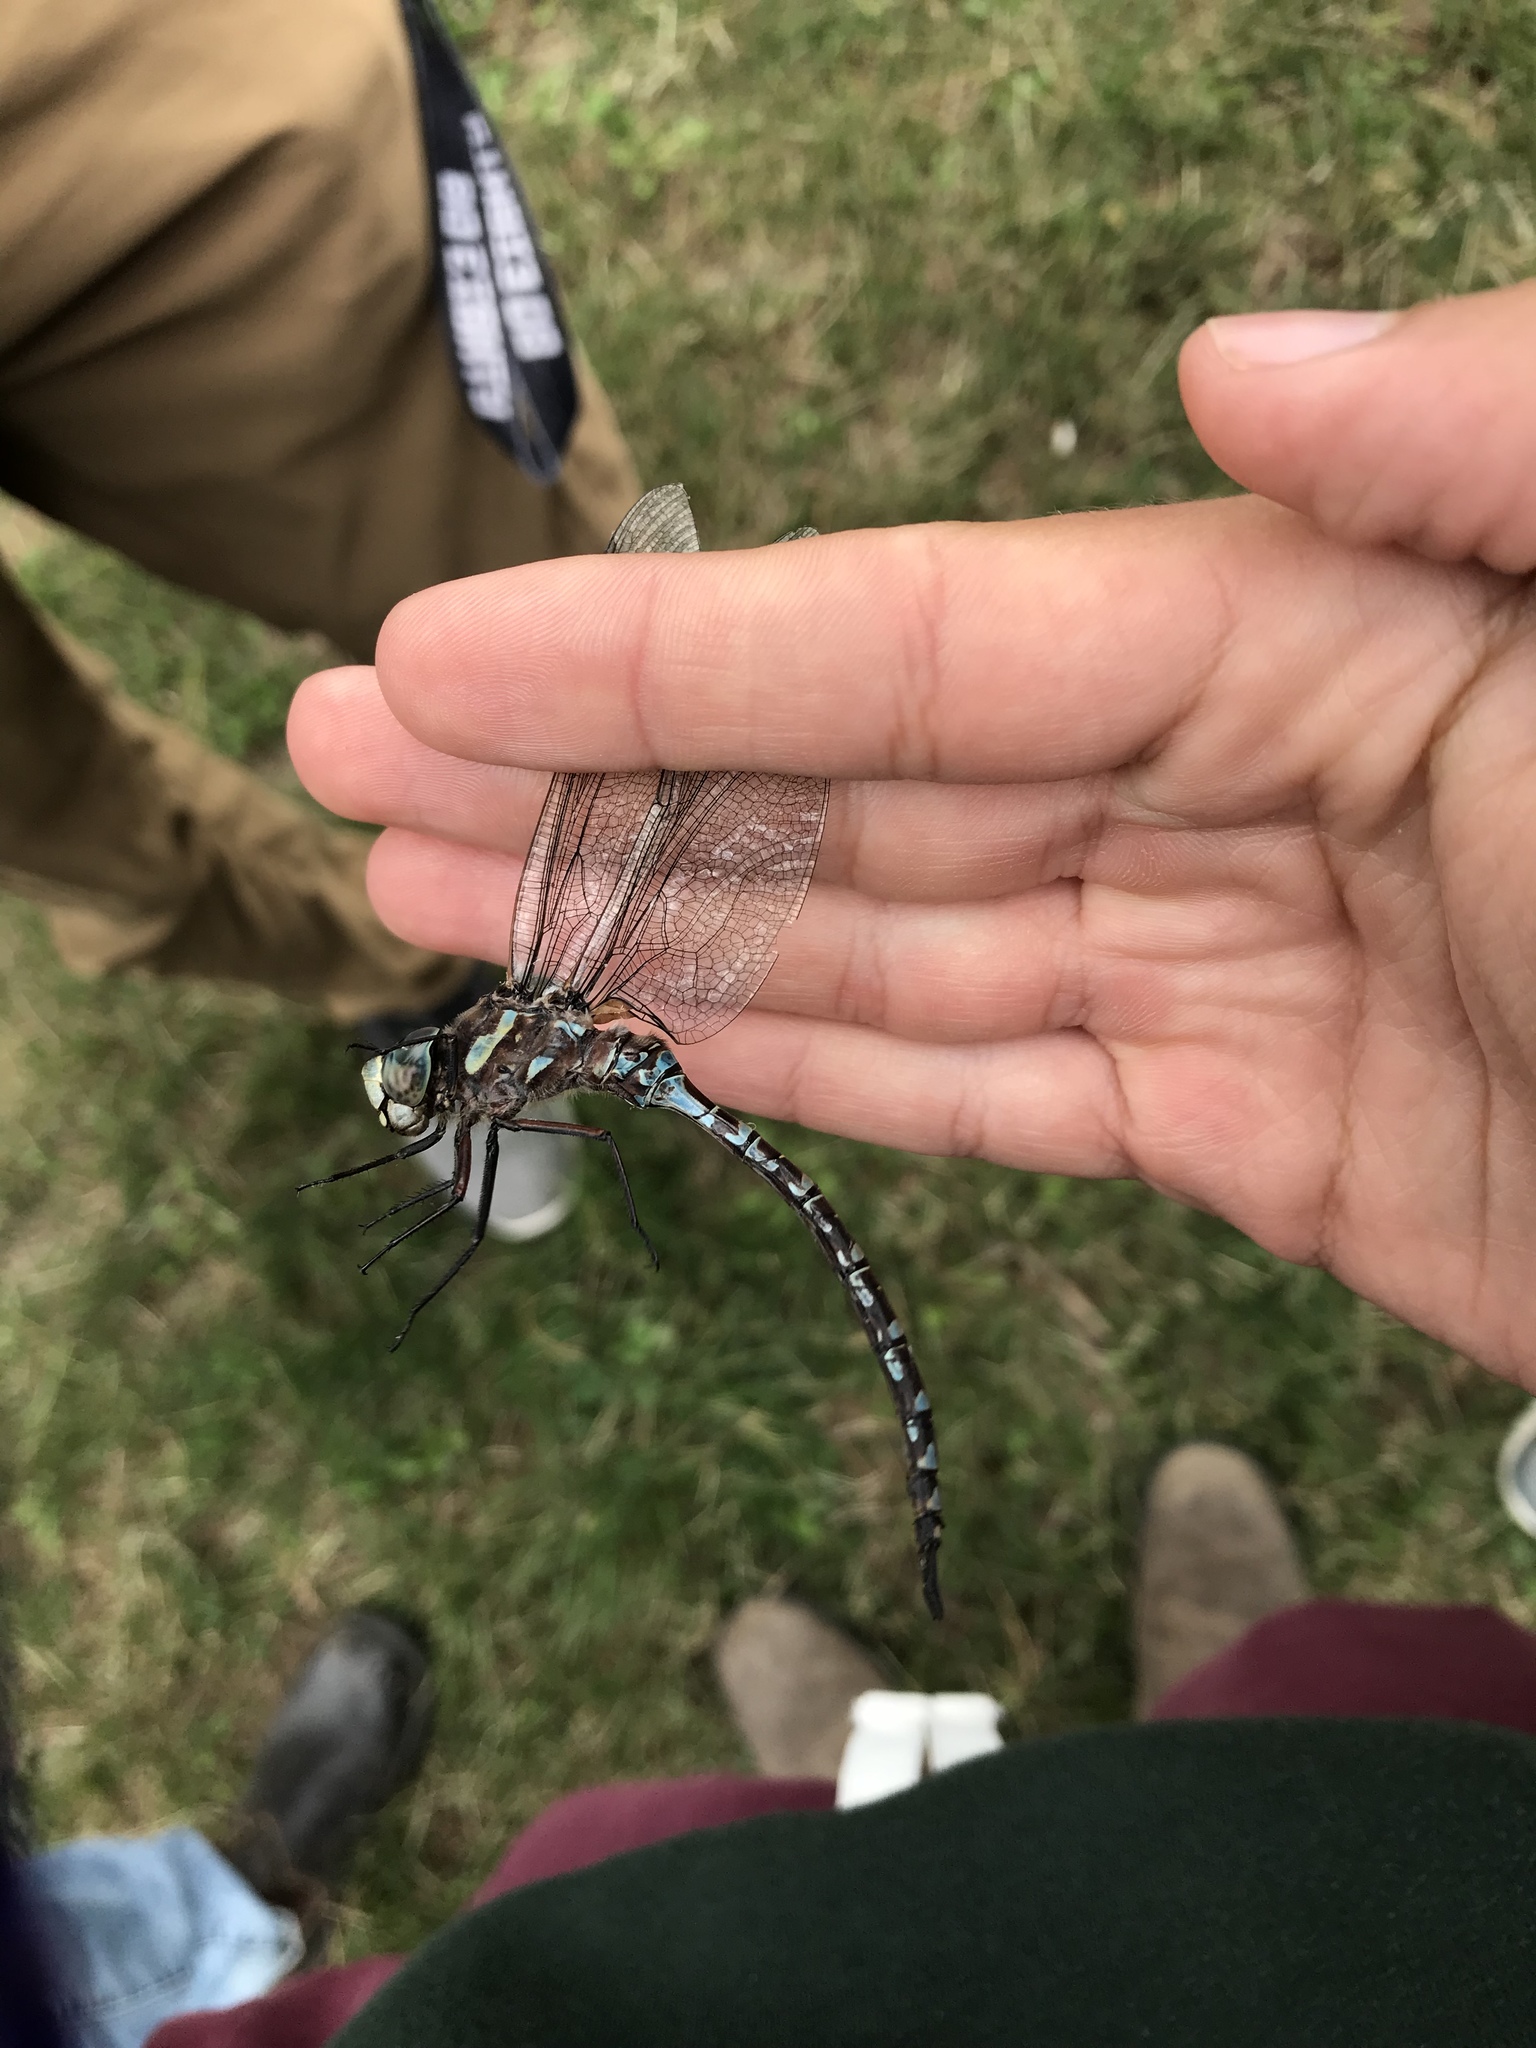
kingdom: Animalia
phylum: Arthropoda
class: Insecta
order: Odonata
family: Aeshnidae
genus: Aeshna
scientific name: Aeshna canadensis
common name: Canada darner
